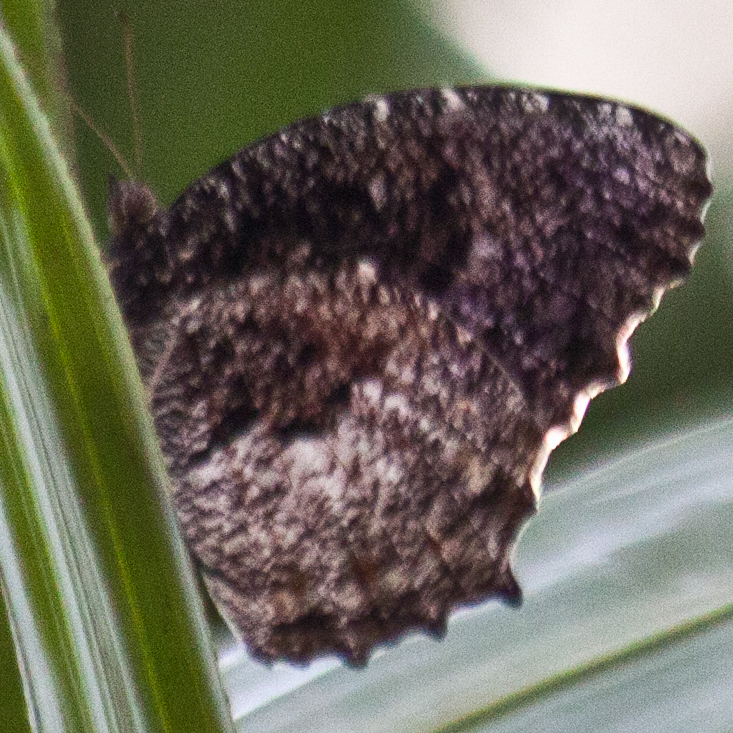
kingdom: Animalia
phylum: Arthropoda
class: Insecta
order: Lepidoptera
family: Nymphalidae
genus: Elymnias
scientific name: Elymnias nesaea
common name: Tiger palmfly
